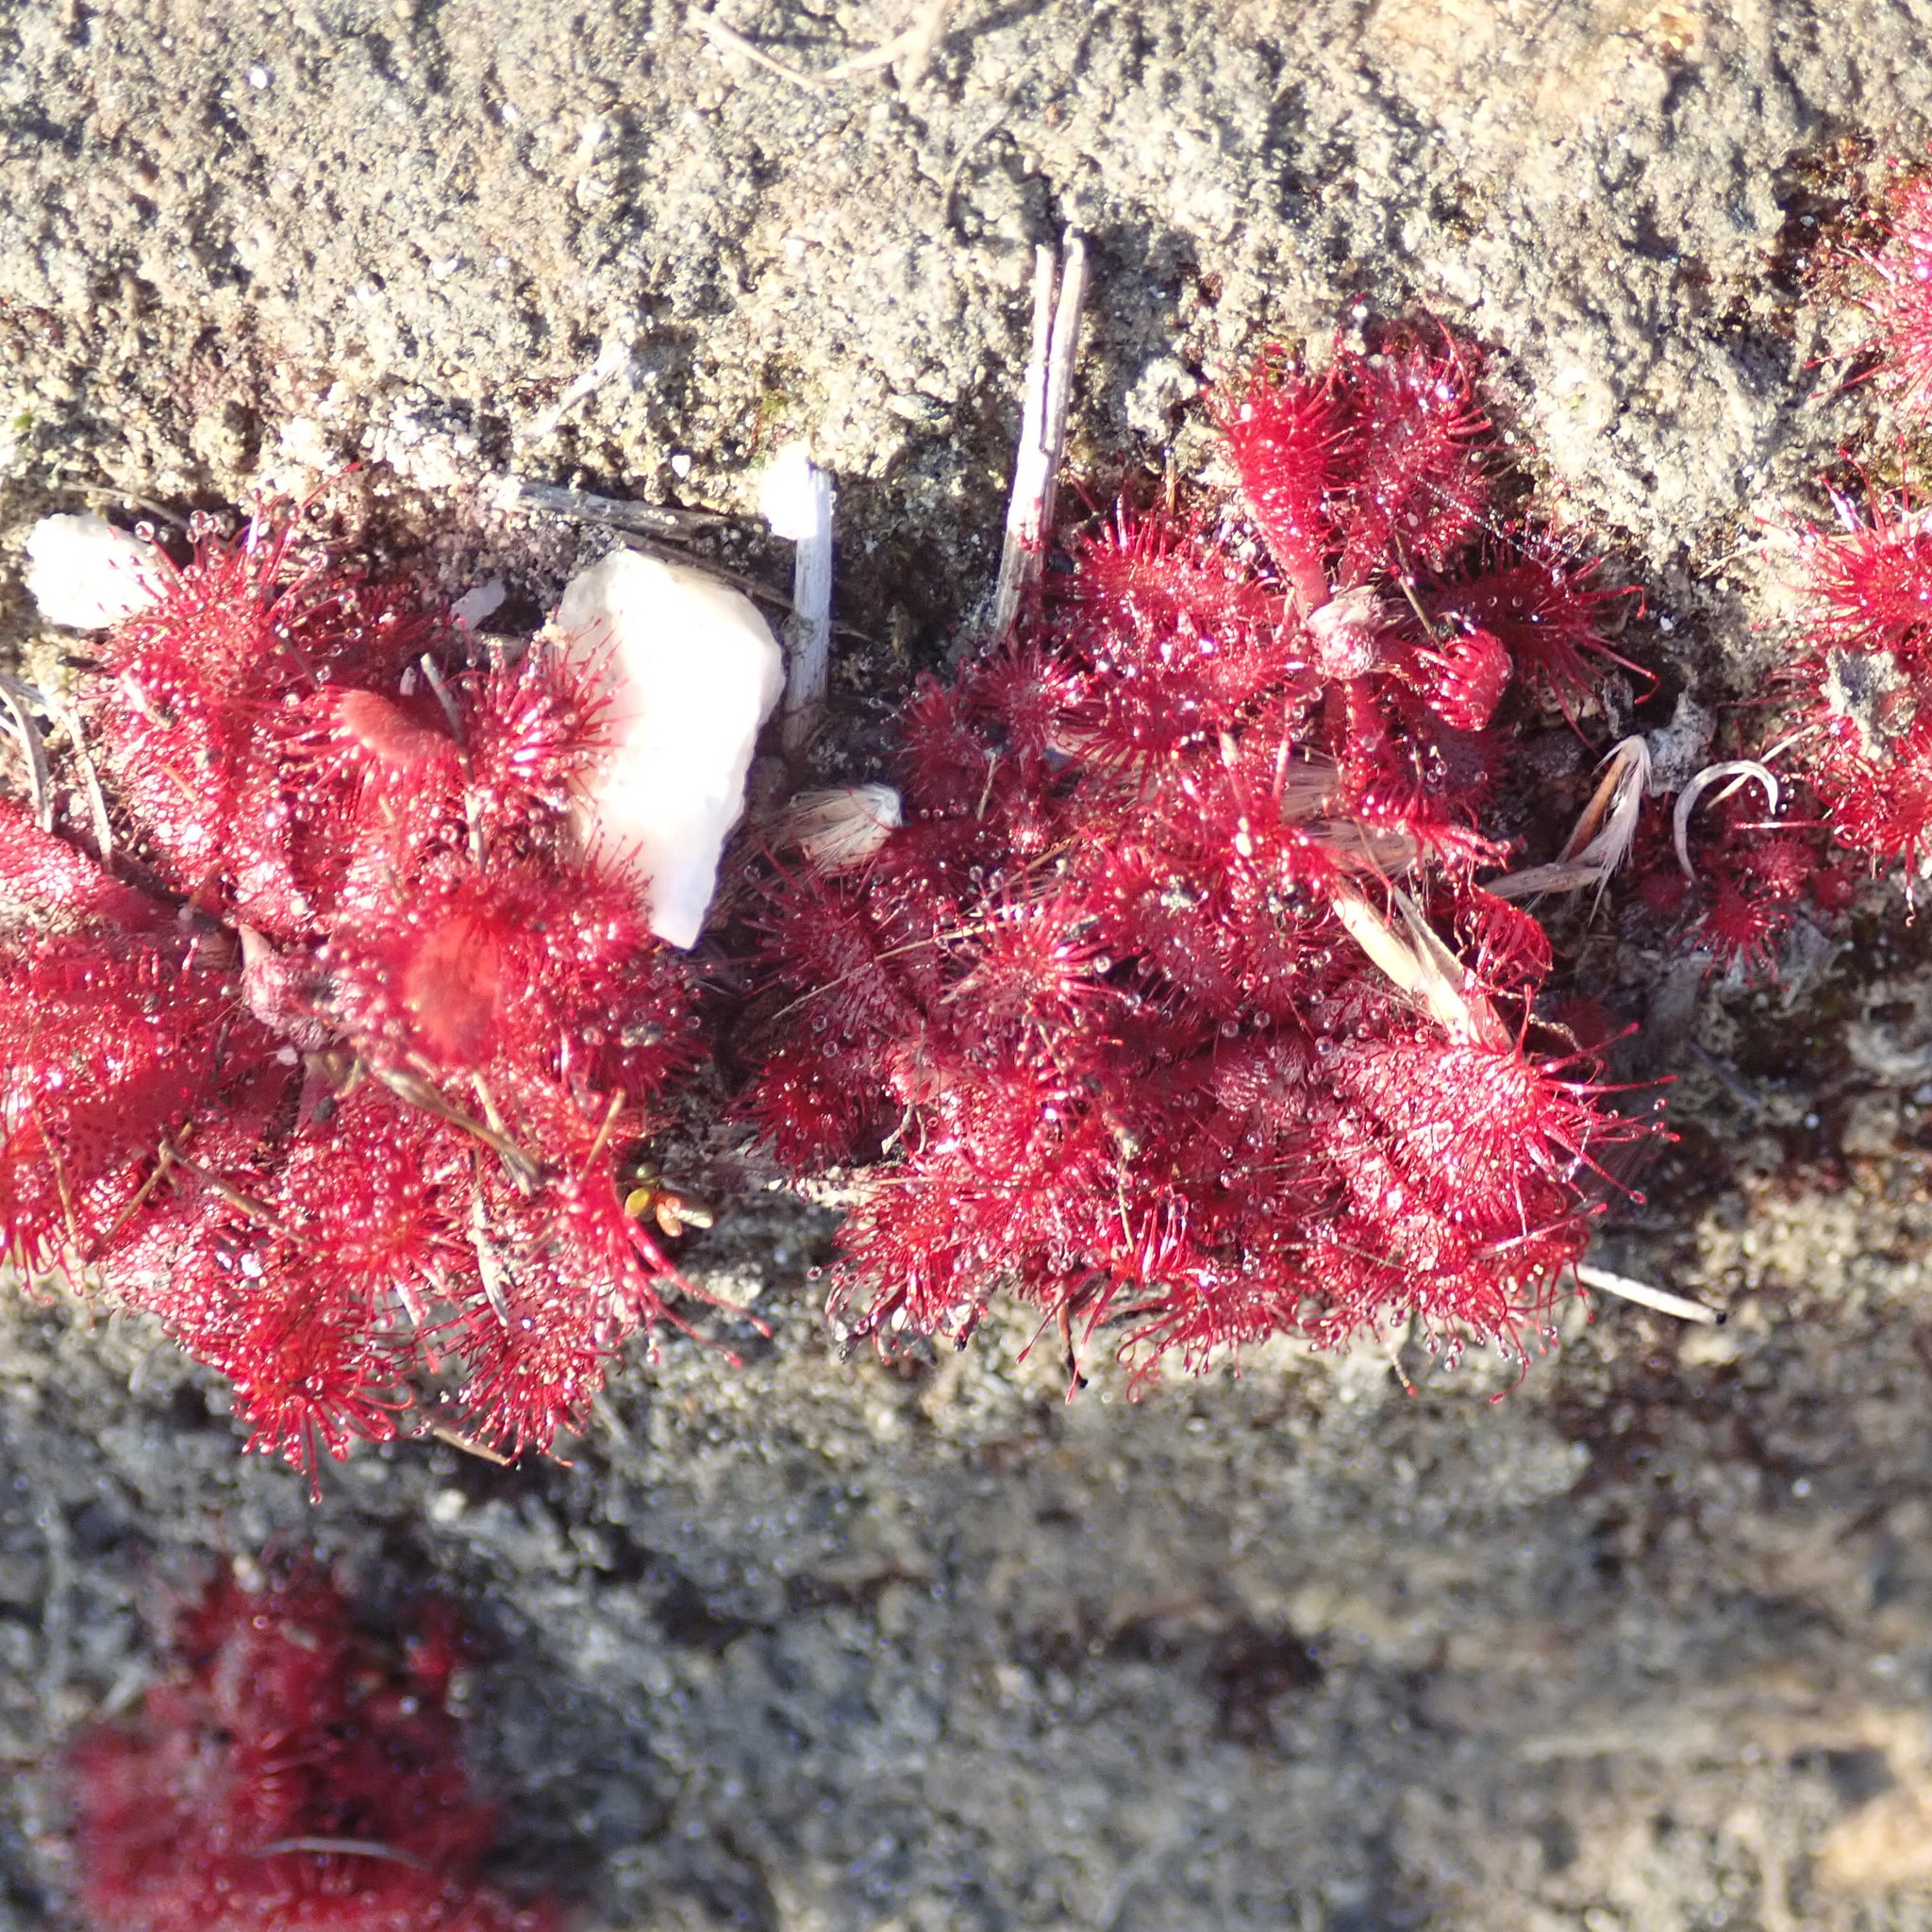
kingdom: Plantae
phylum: Tracheophyta
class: Magnoliopsida
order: Caryophyllales
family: Droseraceae
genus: Drosera
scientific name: Drosera aliciae
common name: Alice sundew
